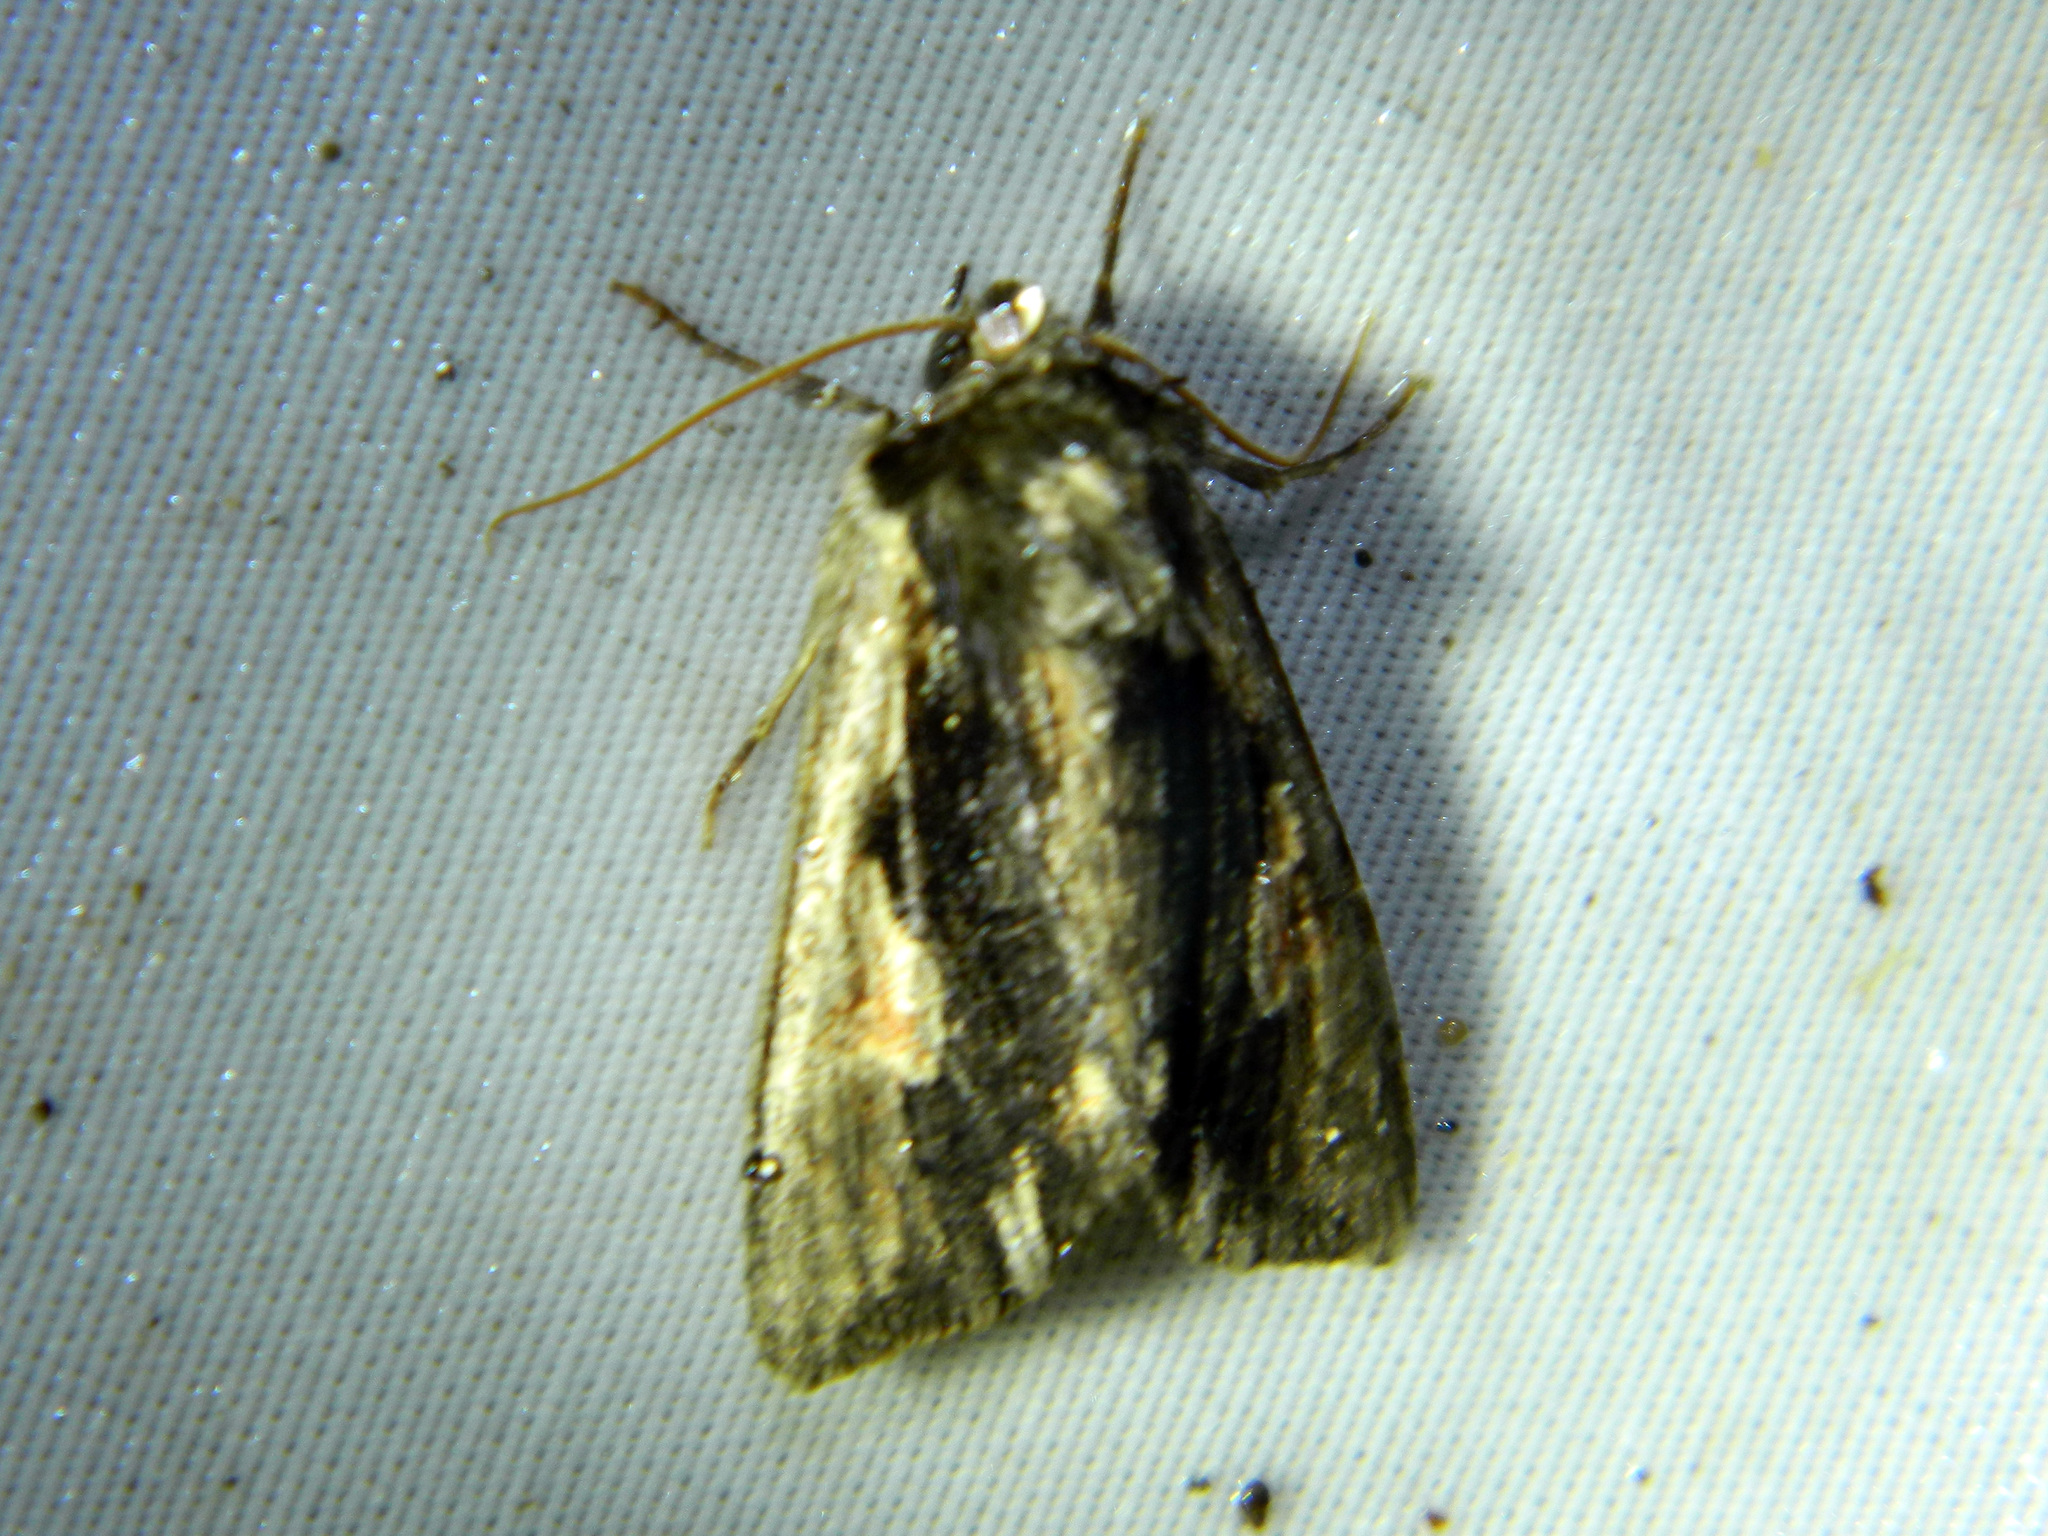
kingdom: Animalia
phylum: Arthropoda
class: Insecta
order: Lepidoptera
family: Noctuidae
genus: Achatia
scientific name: Achatia evicta
